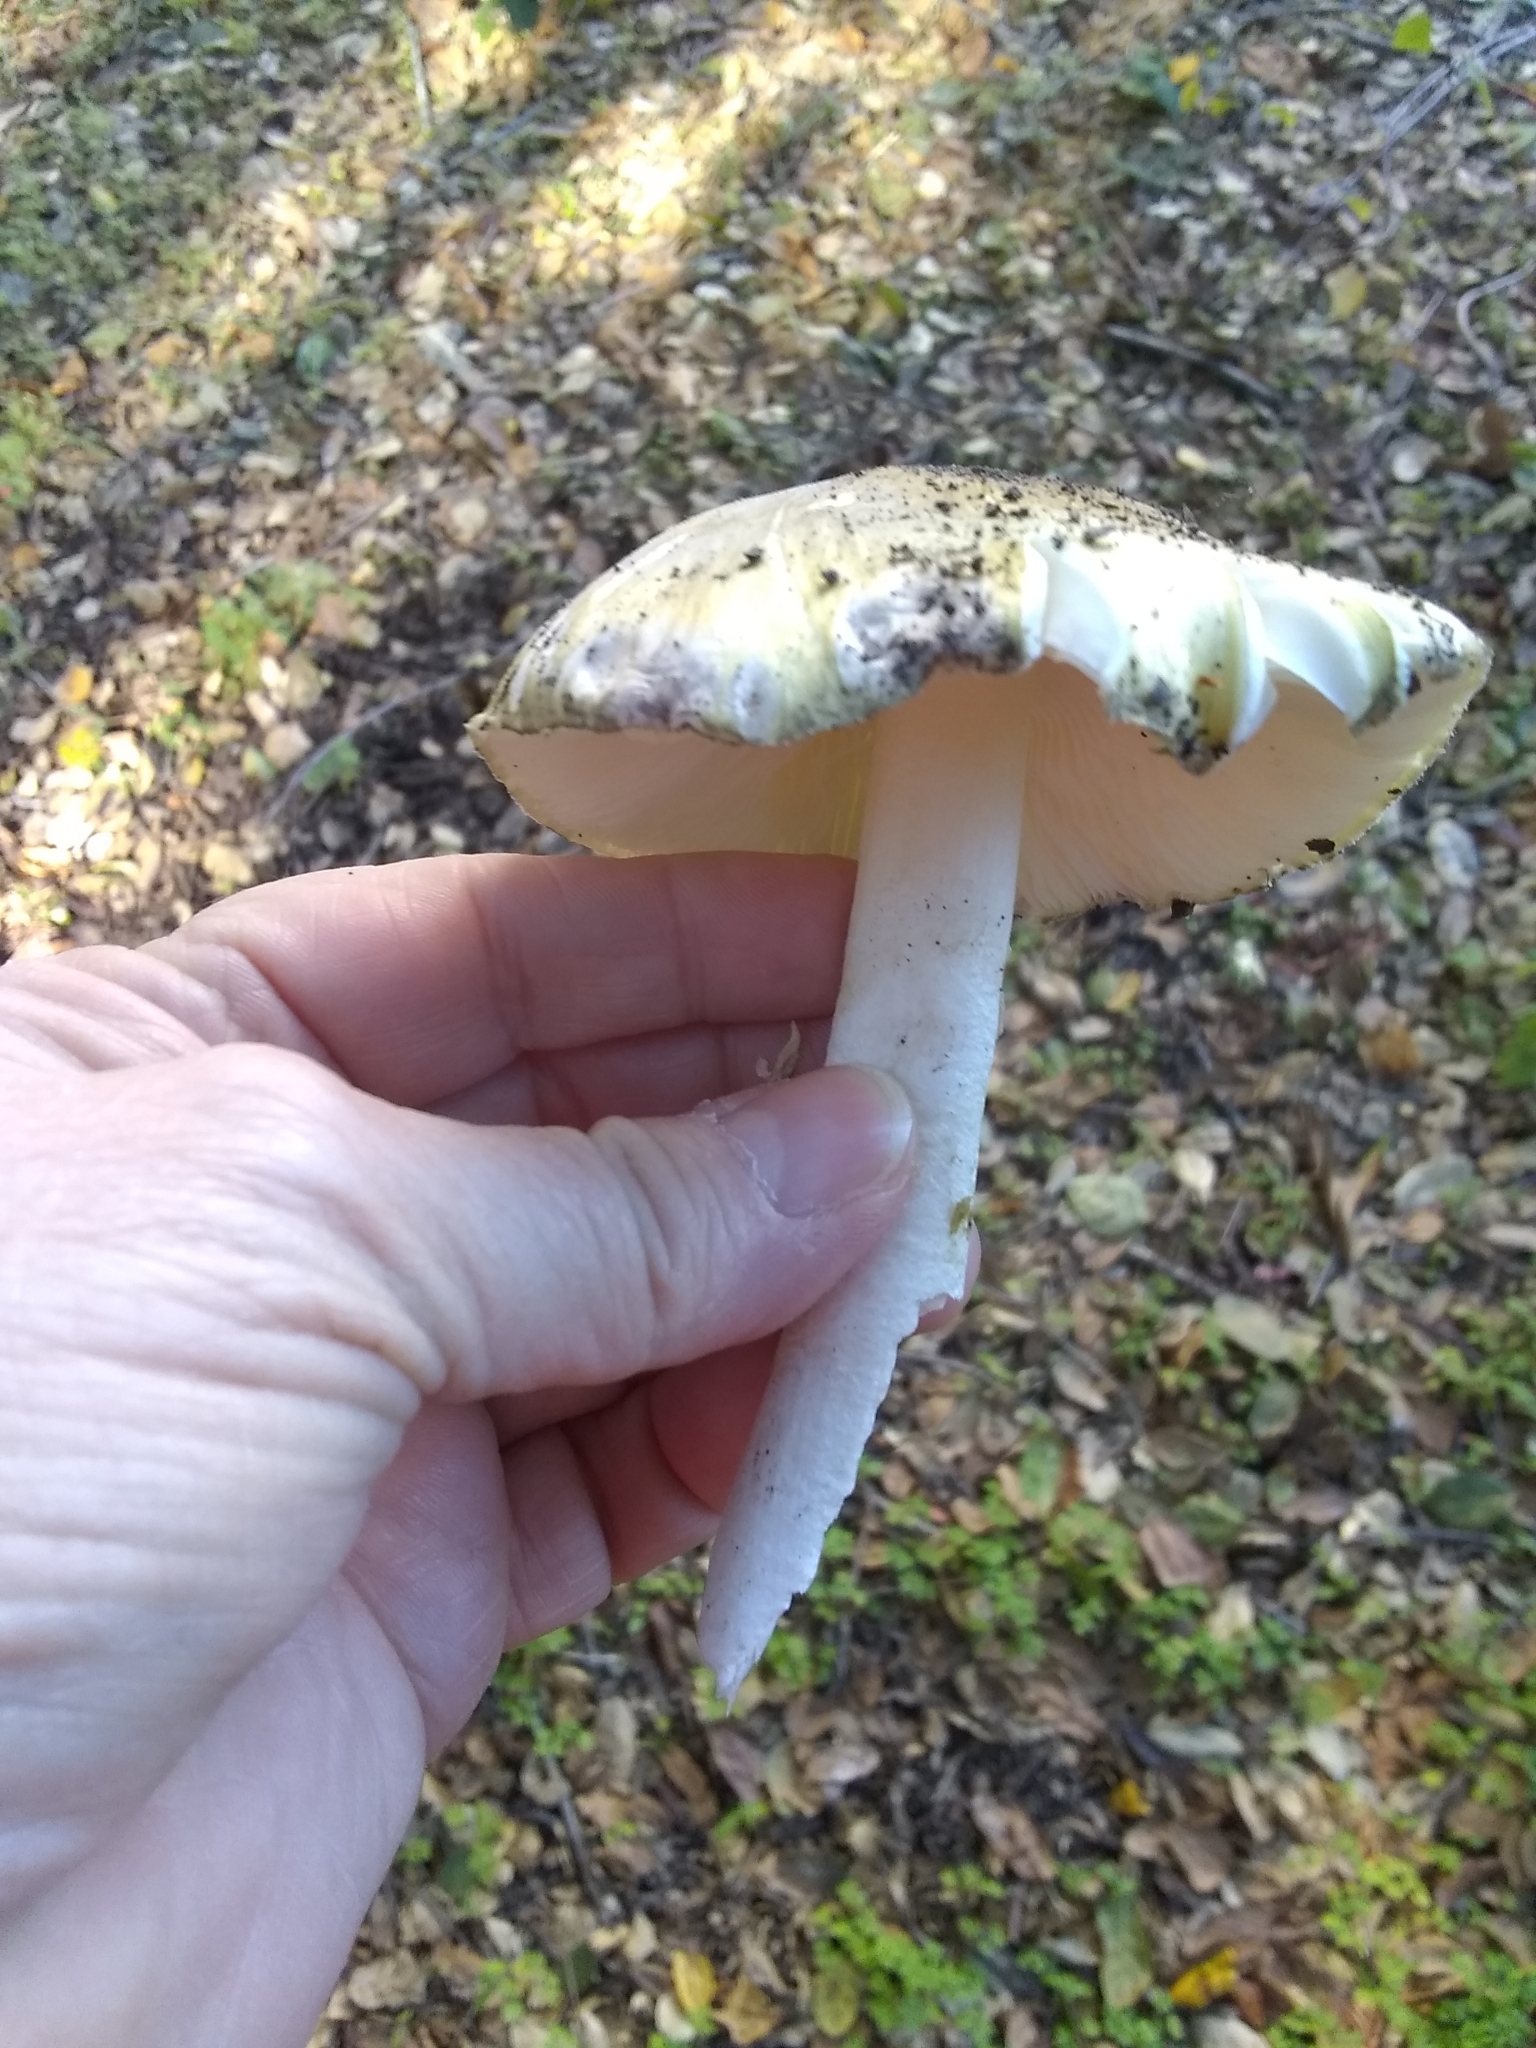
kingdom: Fungi
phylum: Basidiomycota
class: Agaricomycetes
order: Agaricales
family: Amanitaceae
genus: Amanita
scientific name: Amanita phalloides
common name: Death cap
